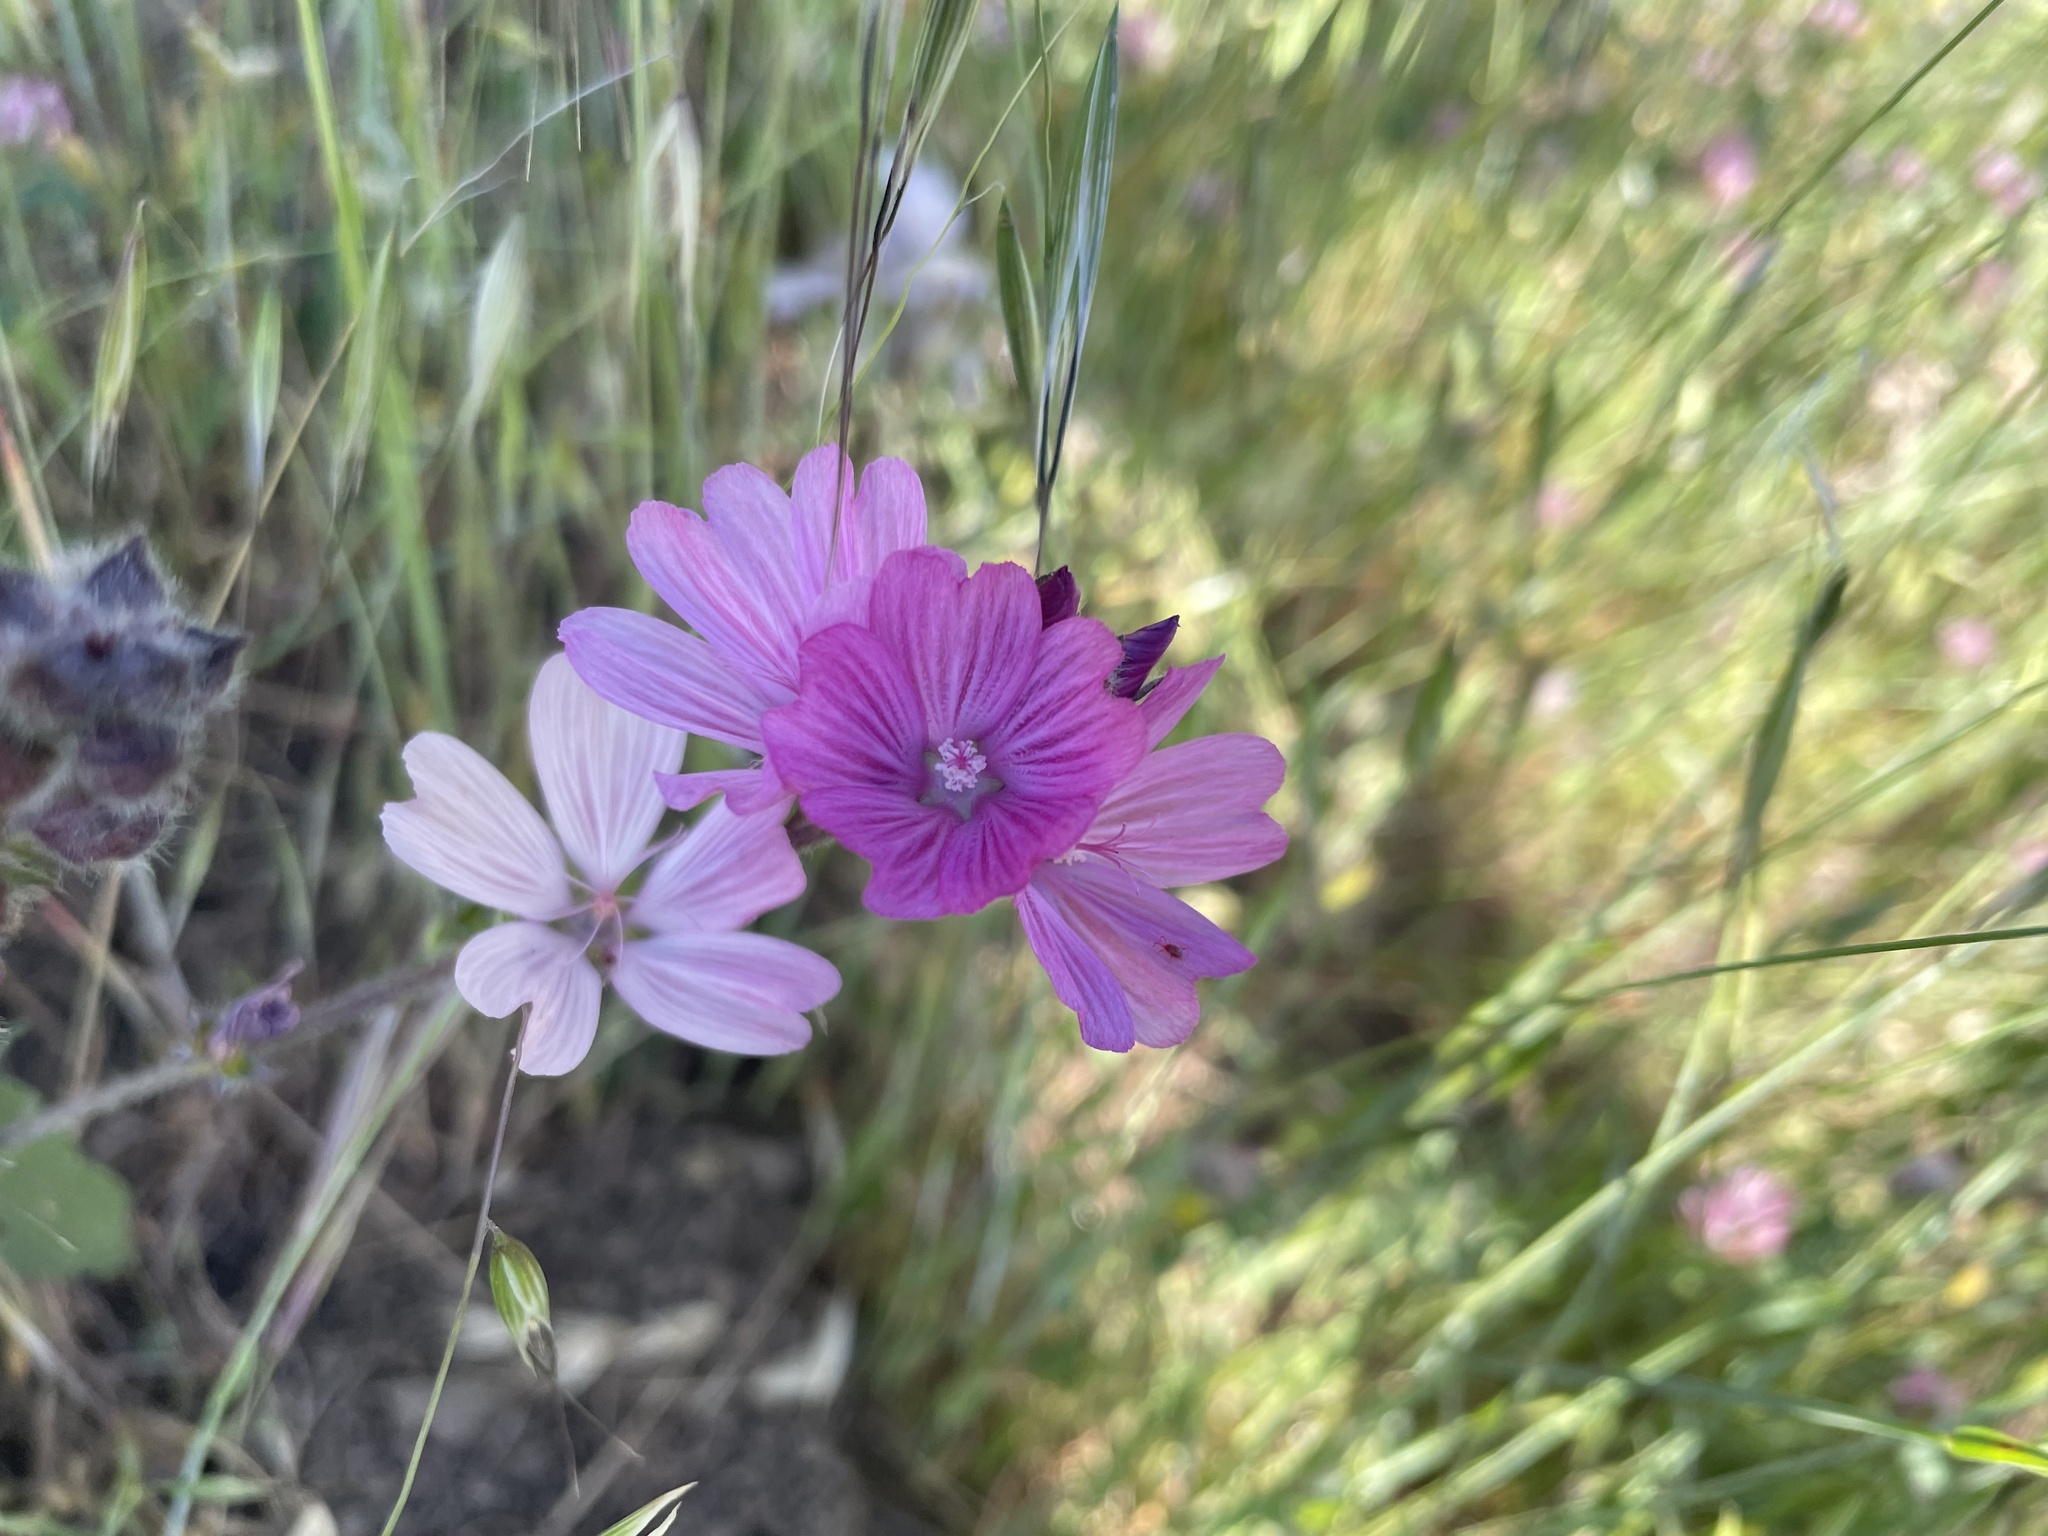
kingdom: Plantae
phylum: Tracheophyta
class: Magnoliopsida
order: Malvales
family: Malvaceae
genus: Sidalcea
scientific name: Sidalcea malviflora
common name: Greek mallow
